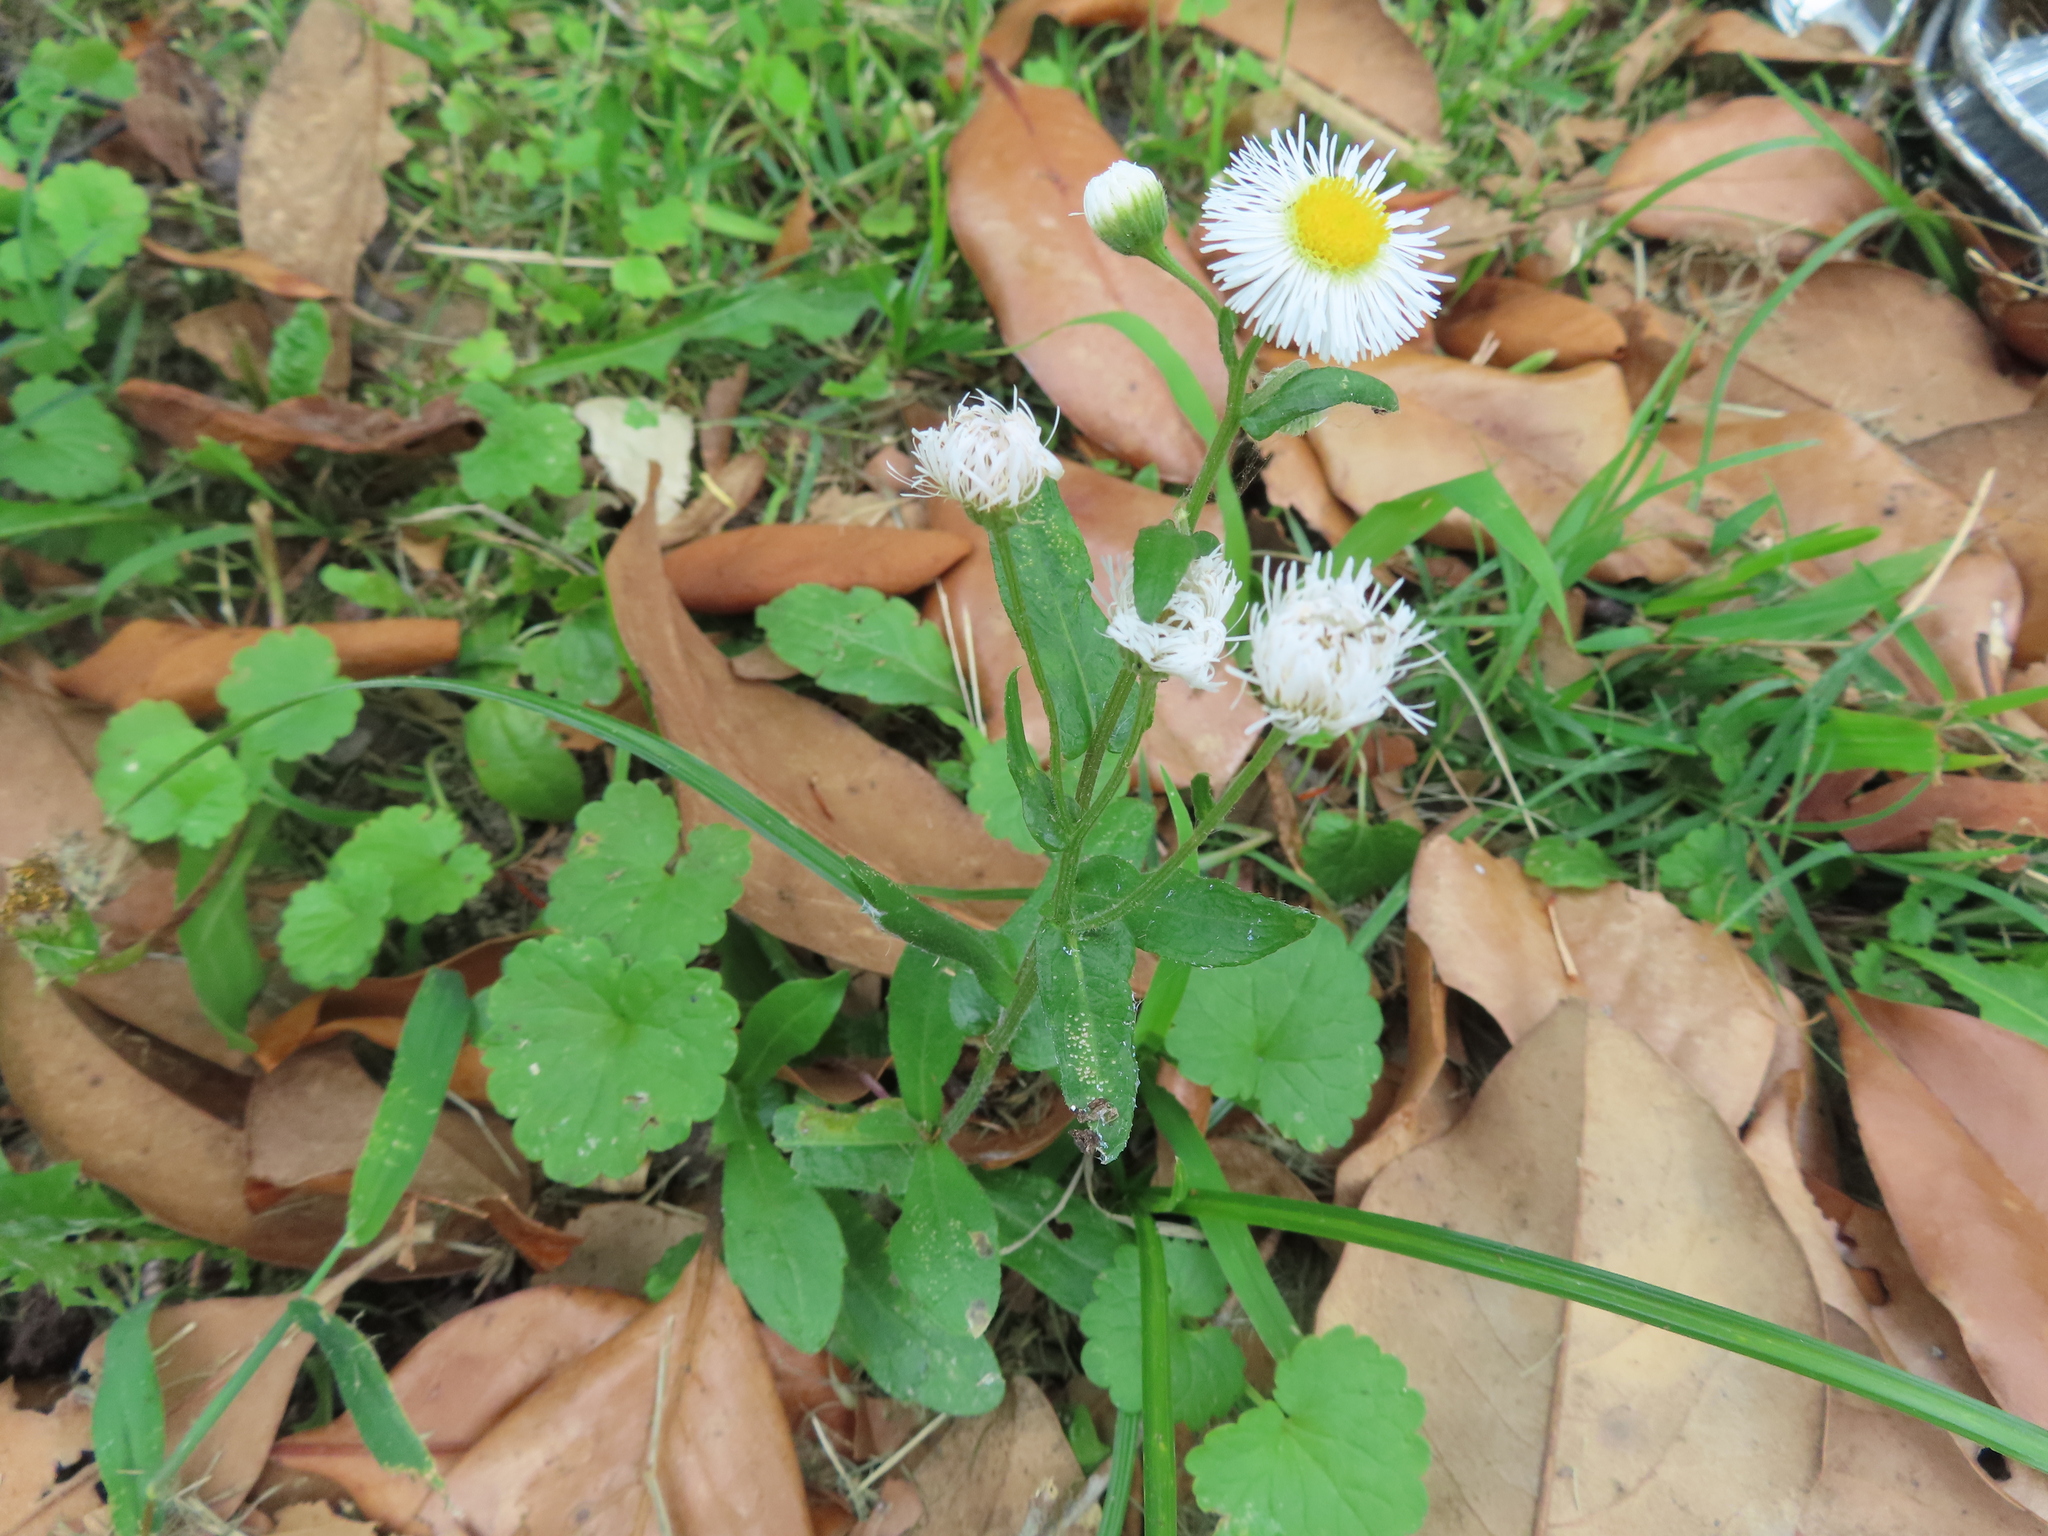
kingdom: Plantae
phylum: Tracheophyta
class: Magnoliopsida
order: Lamiales
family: Lamiaceae
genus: Glechoma
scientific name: Glechoma hederacea
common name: Ground ivy
